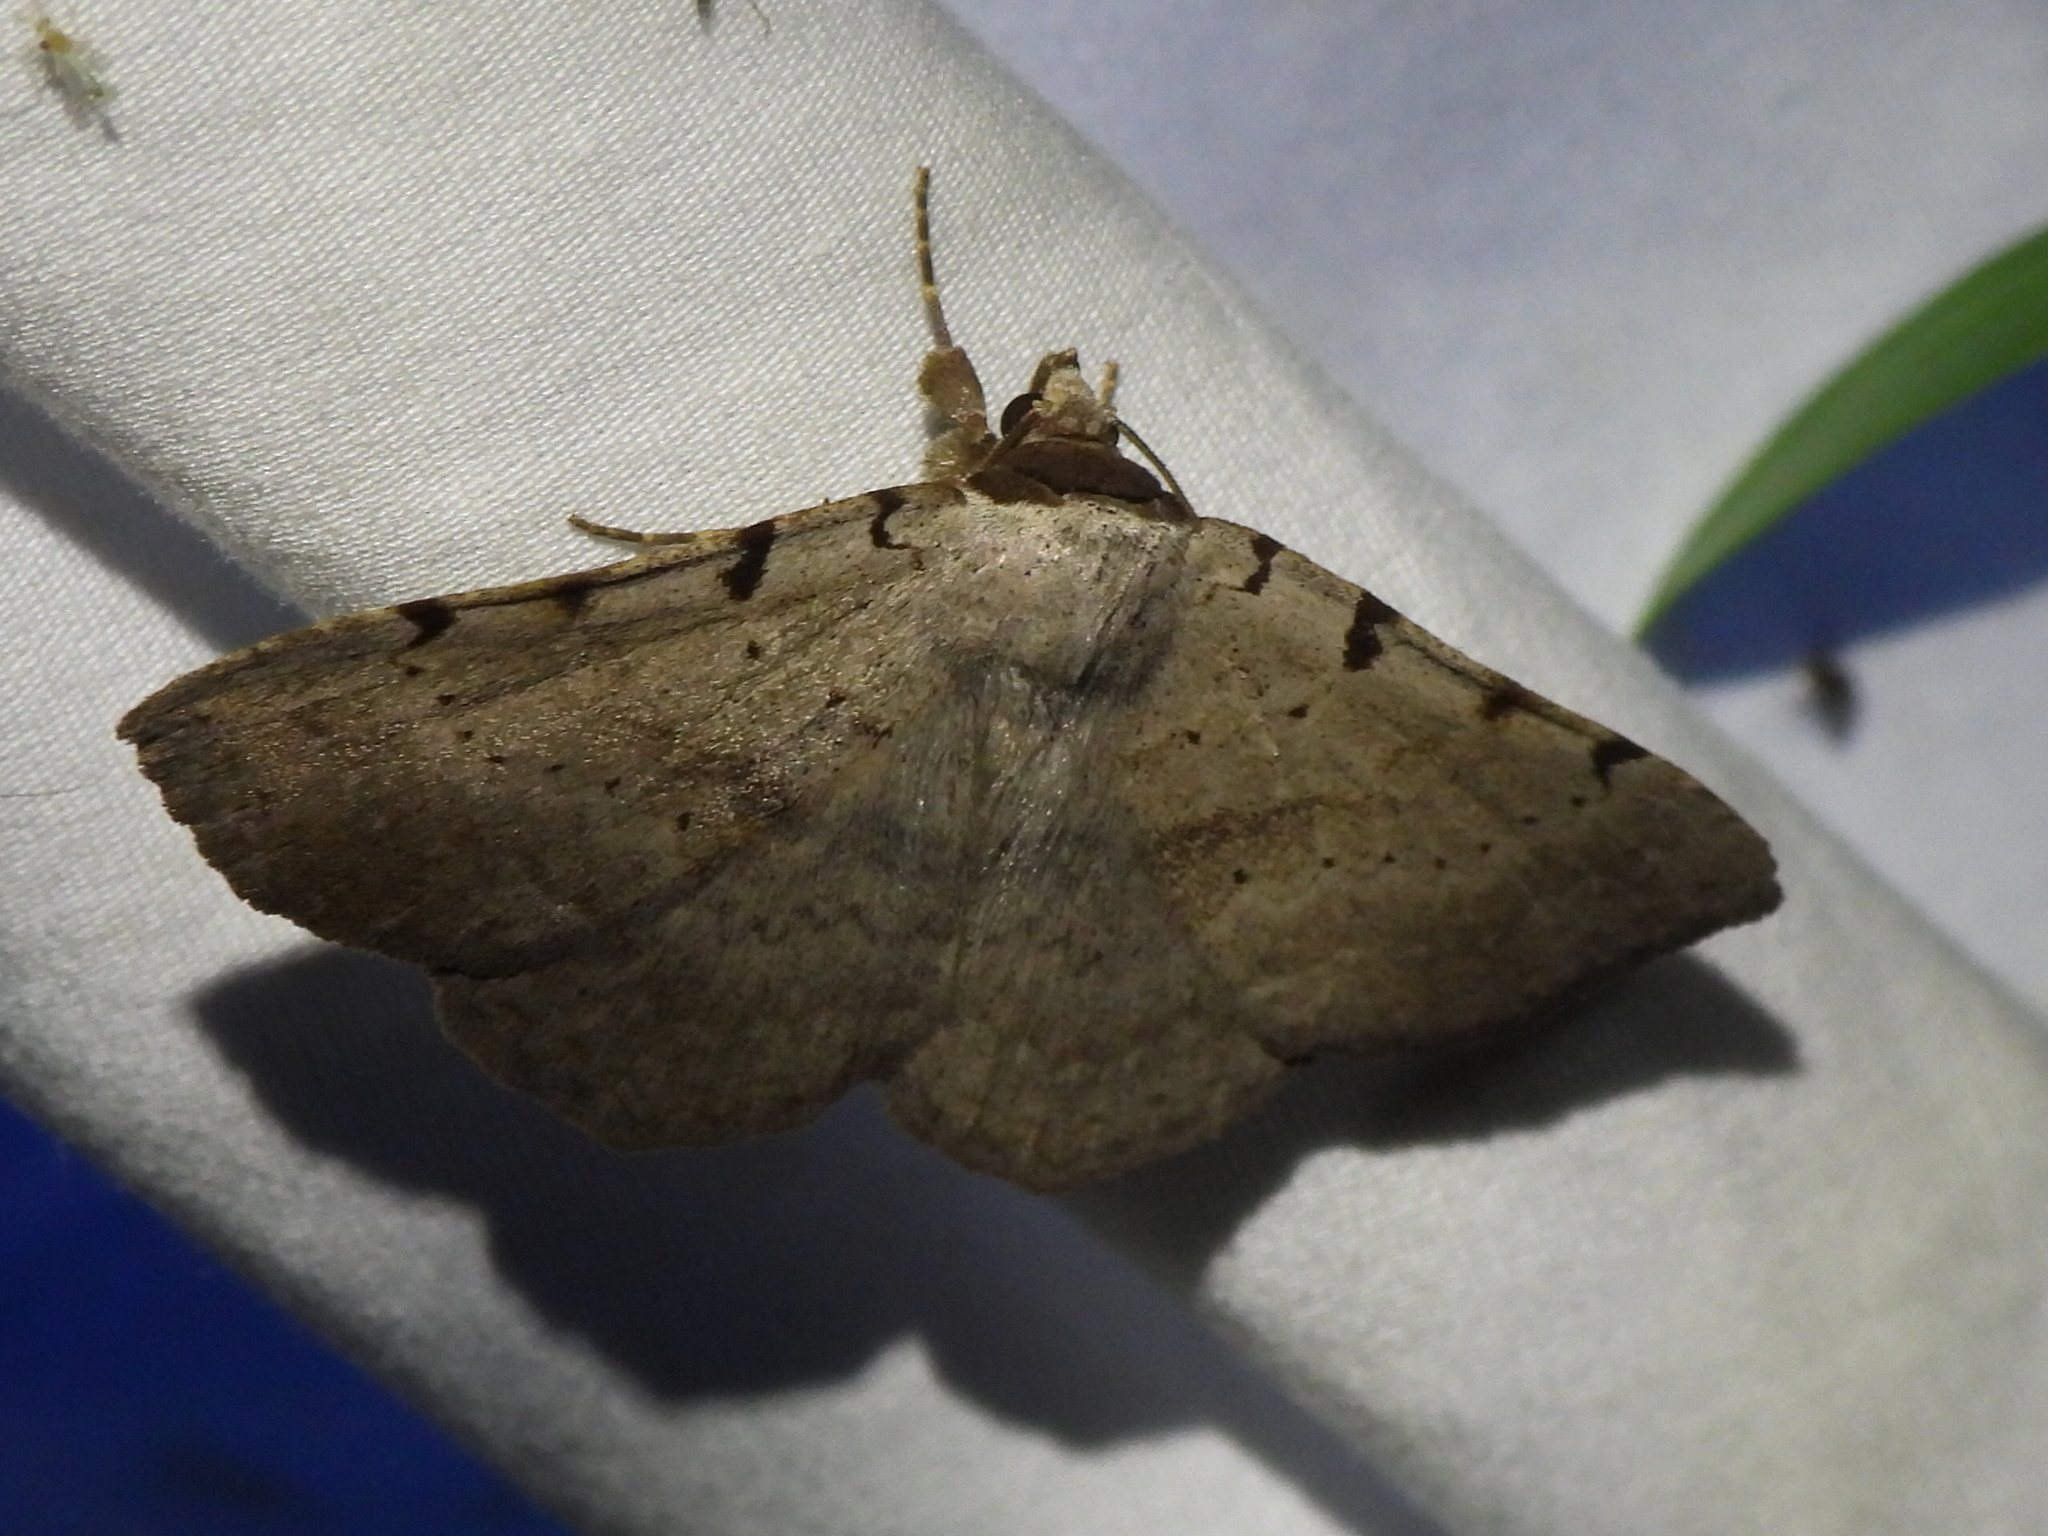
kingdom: Animalia
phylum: Arthropoda
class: Insecta
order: Lepidoptera
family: Erebidae
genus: Spiloloma
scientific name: Spiloloma lunilinea
